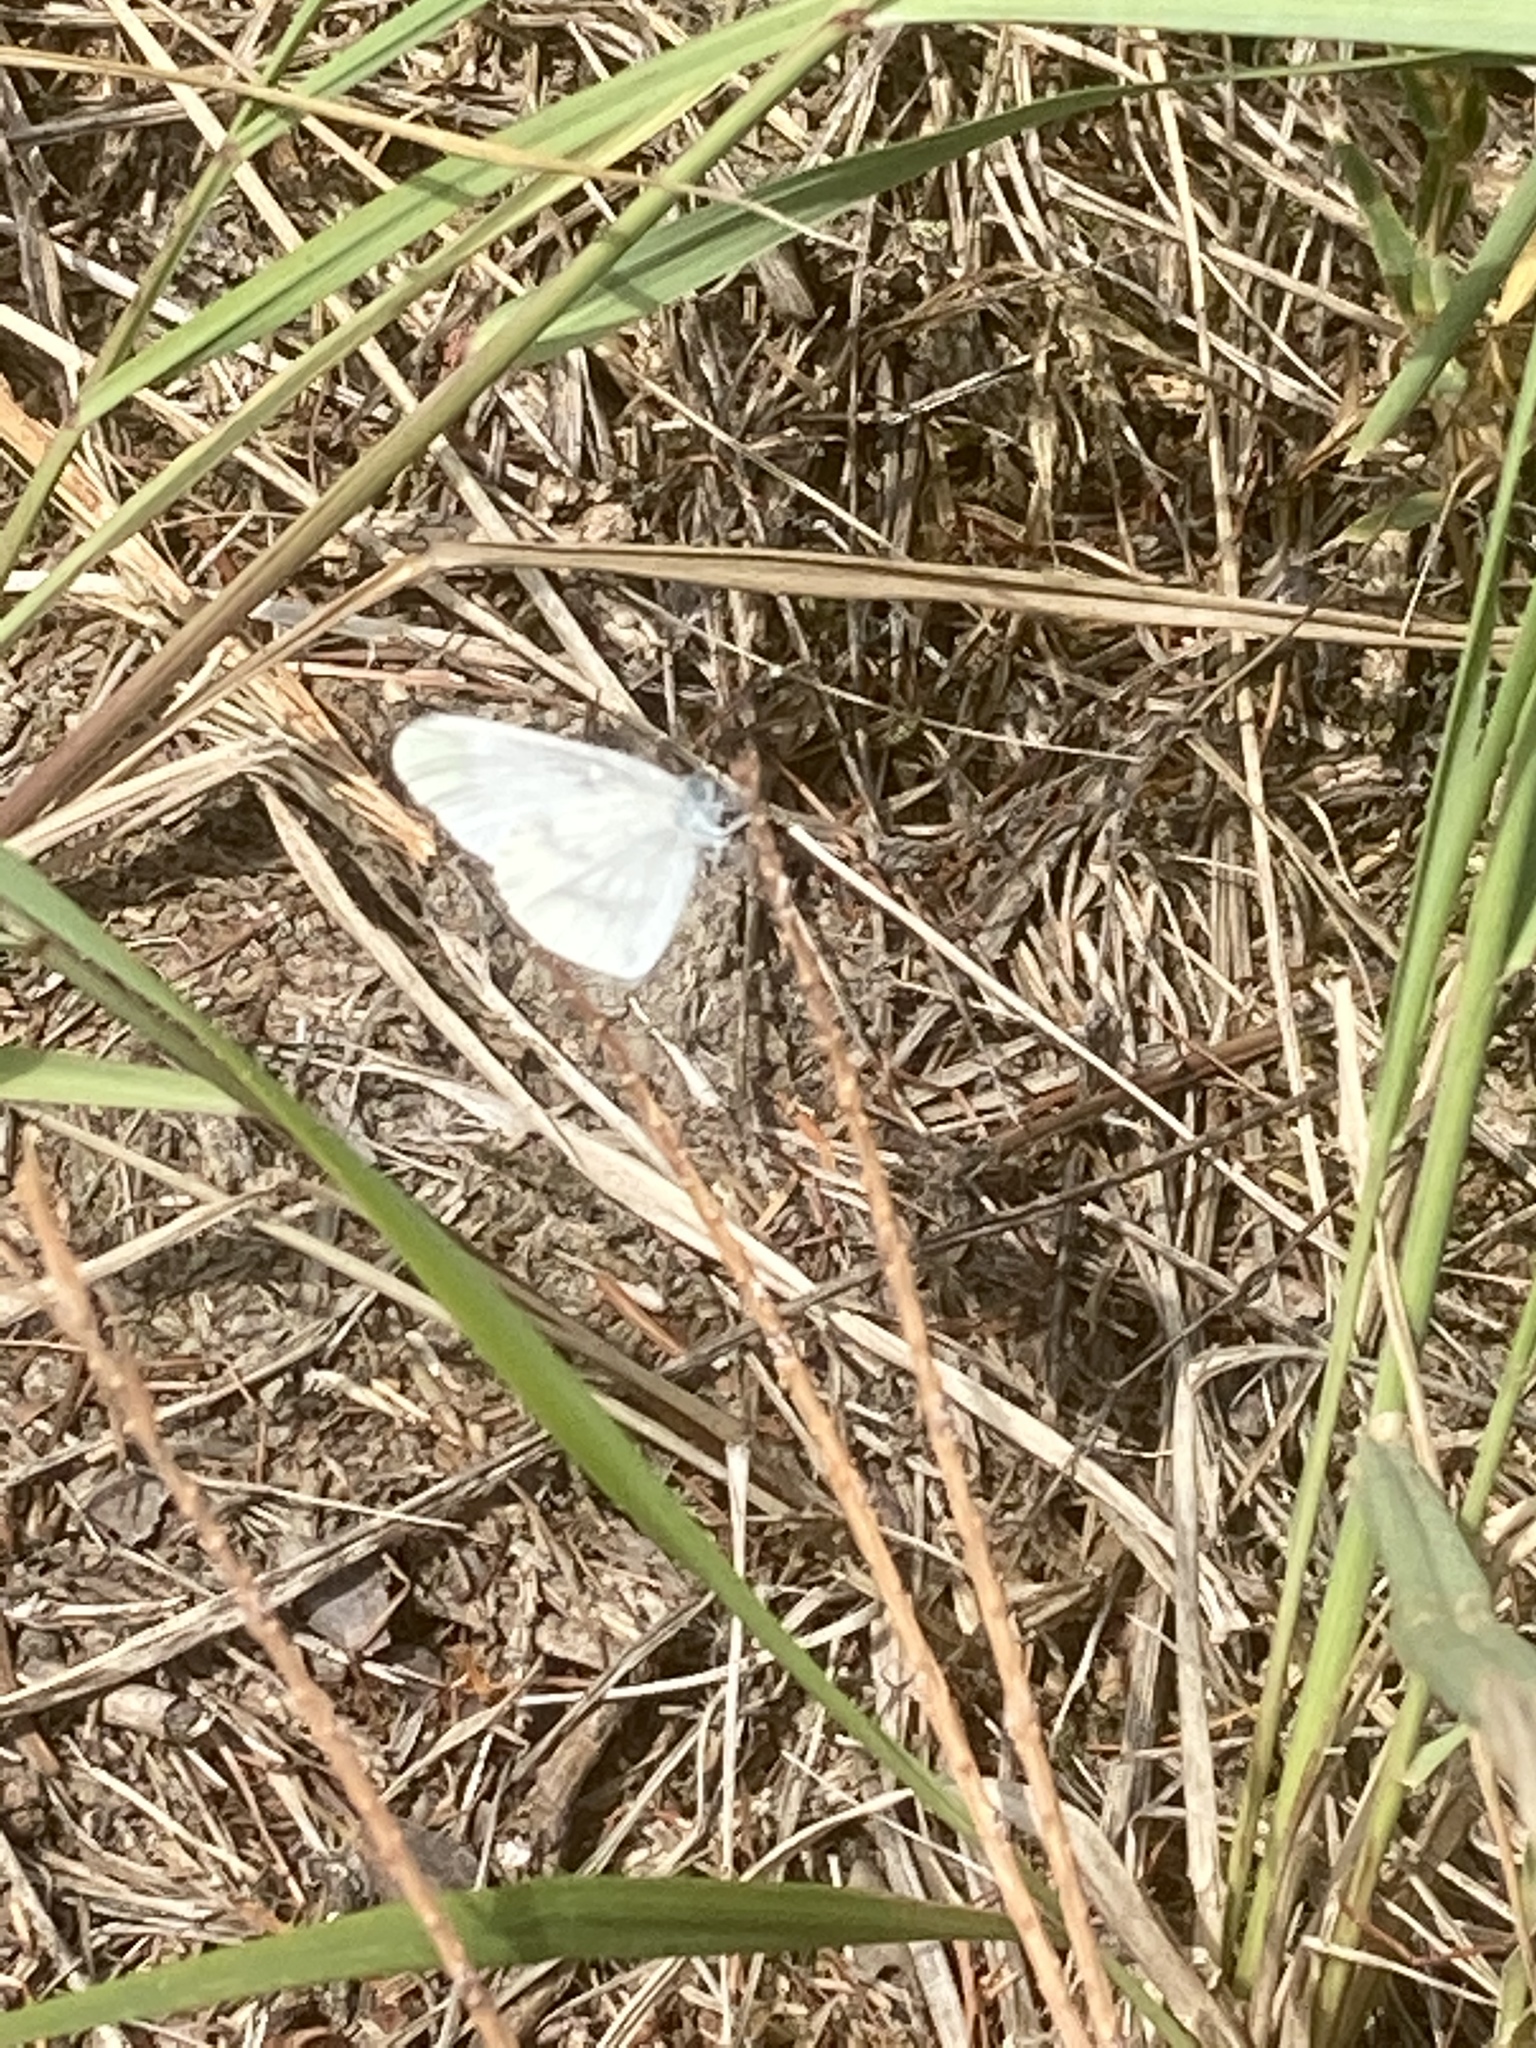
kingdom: Animalia
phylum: Arthropoda
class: Insecta
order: Lepidoptera
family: Pieridae
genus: Leptidea
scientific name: Leptidea
